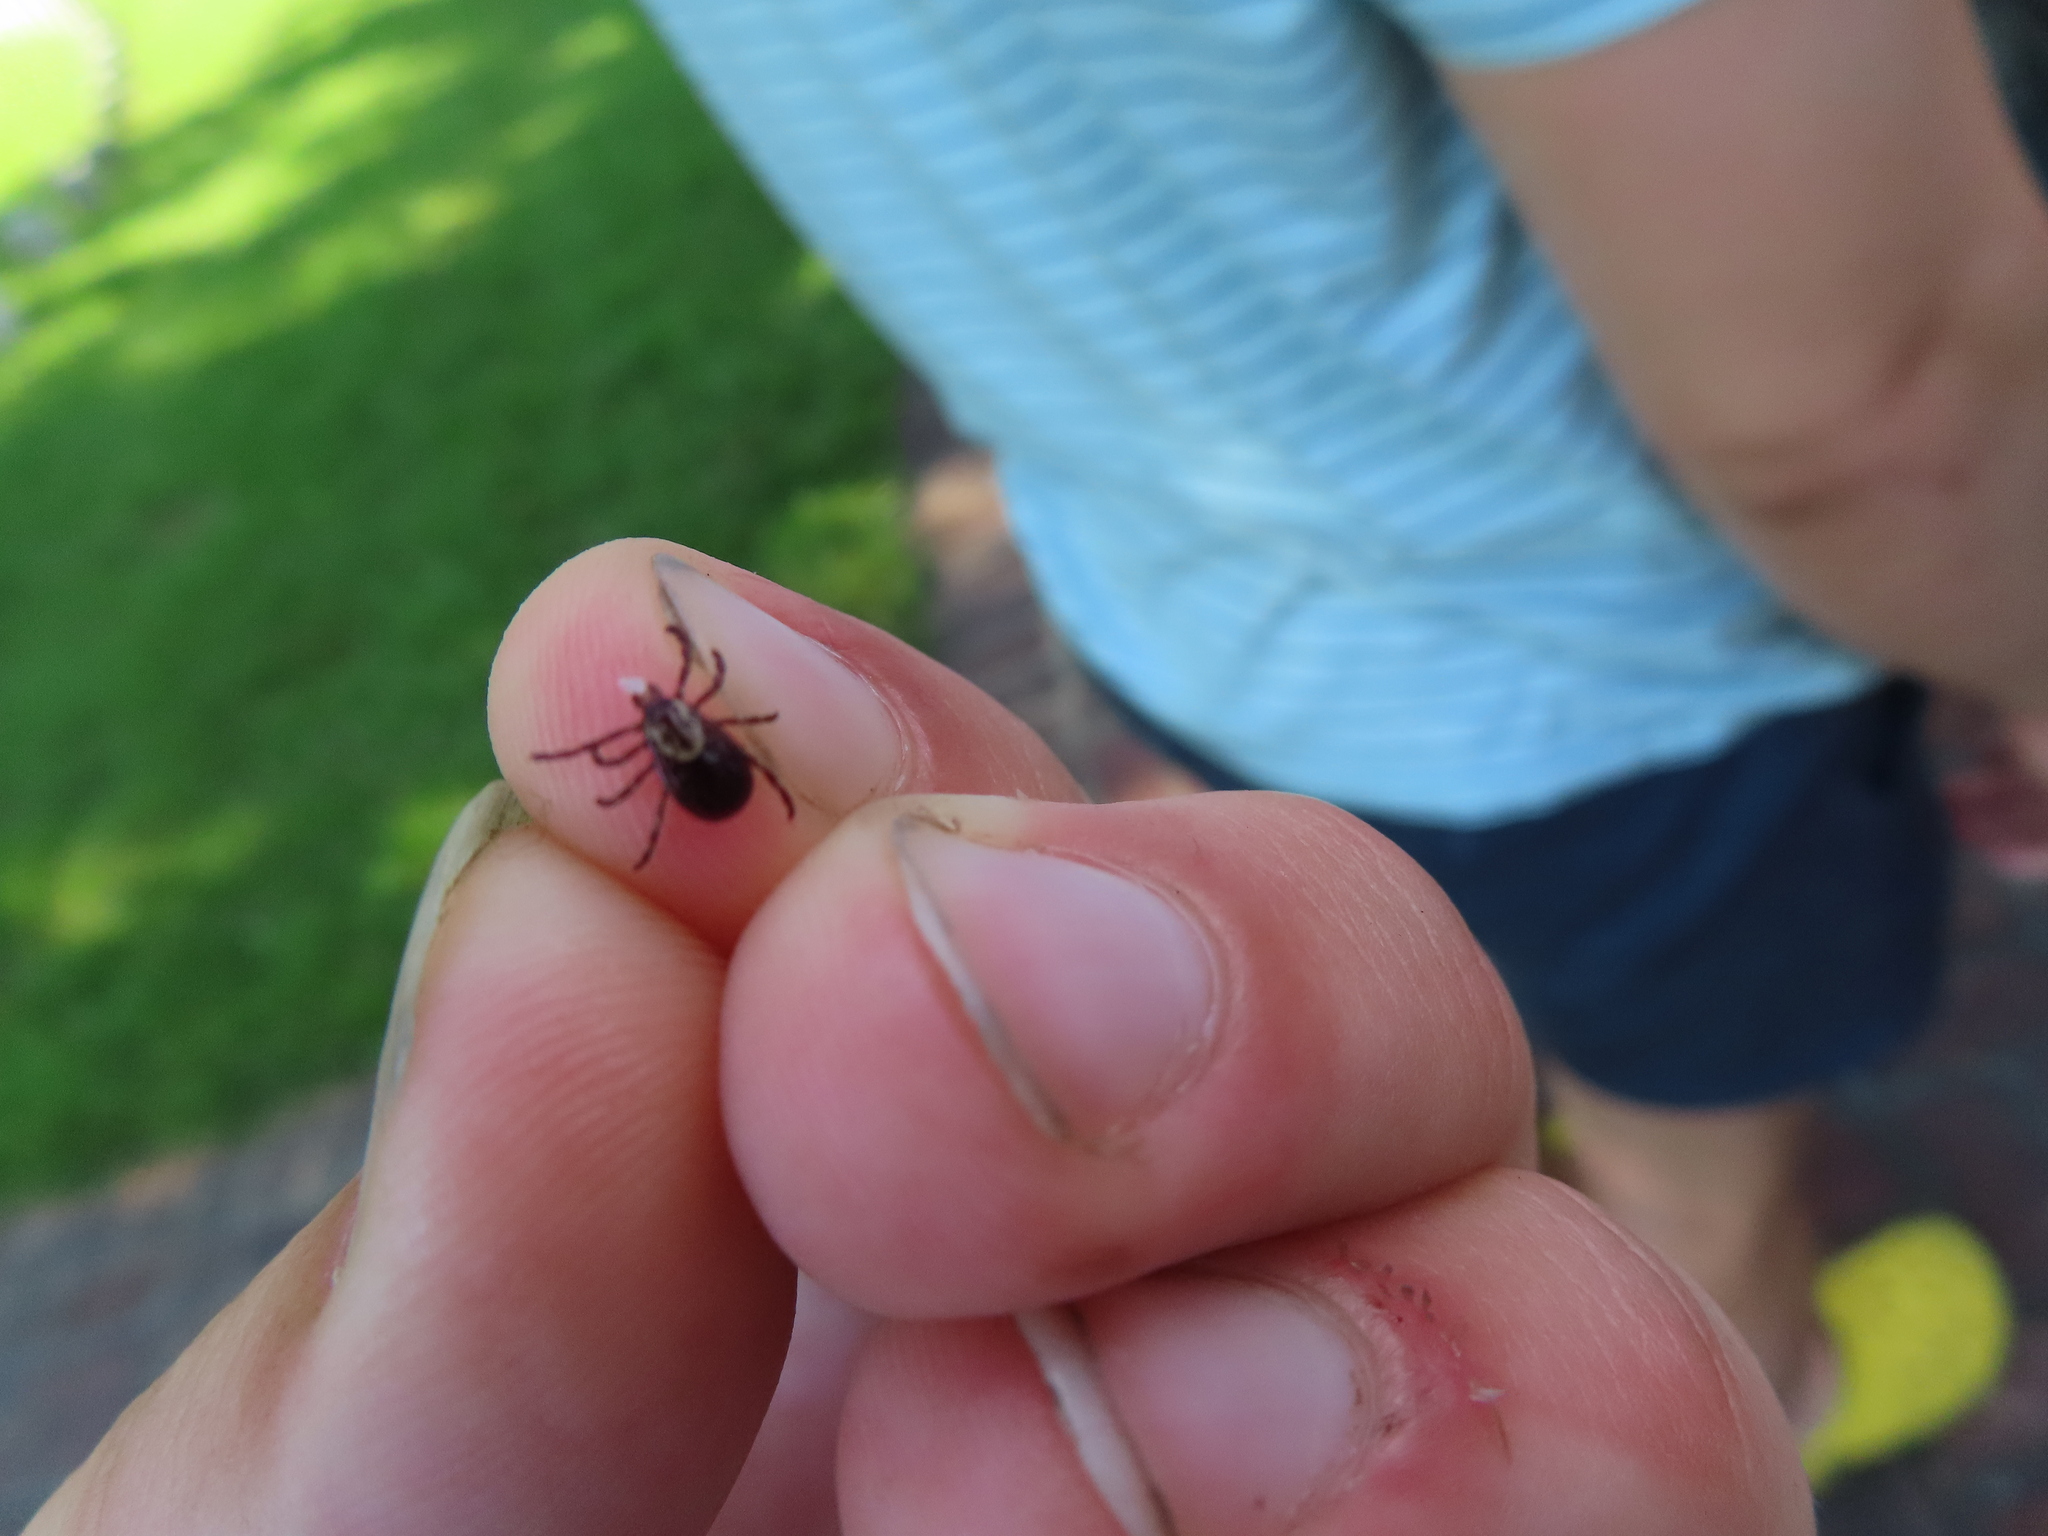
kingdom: Animalia
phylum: Arthropoda
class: Arachnida
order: Ixodida
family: Ixodidae
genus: Dermacentor
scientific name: Dermacentor variabilis
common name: American dog tick
